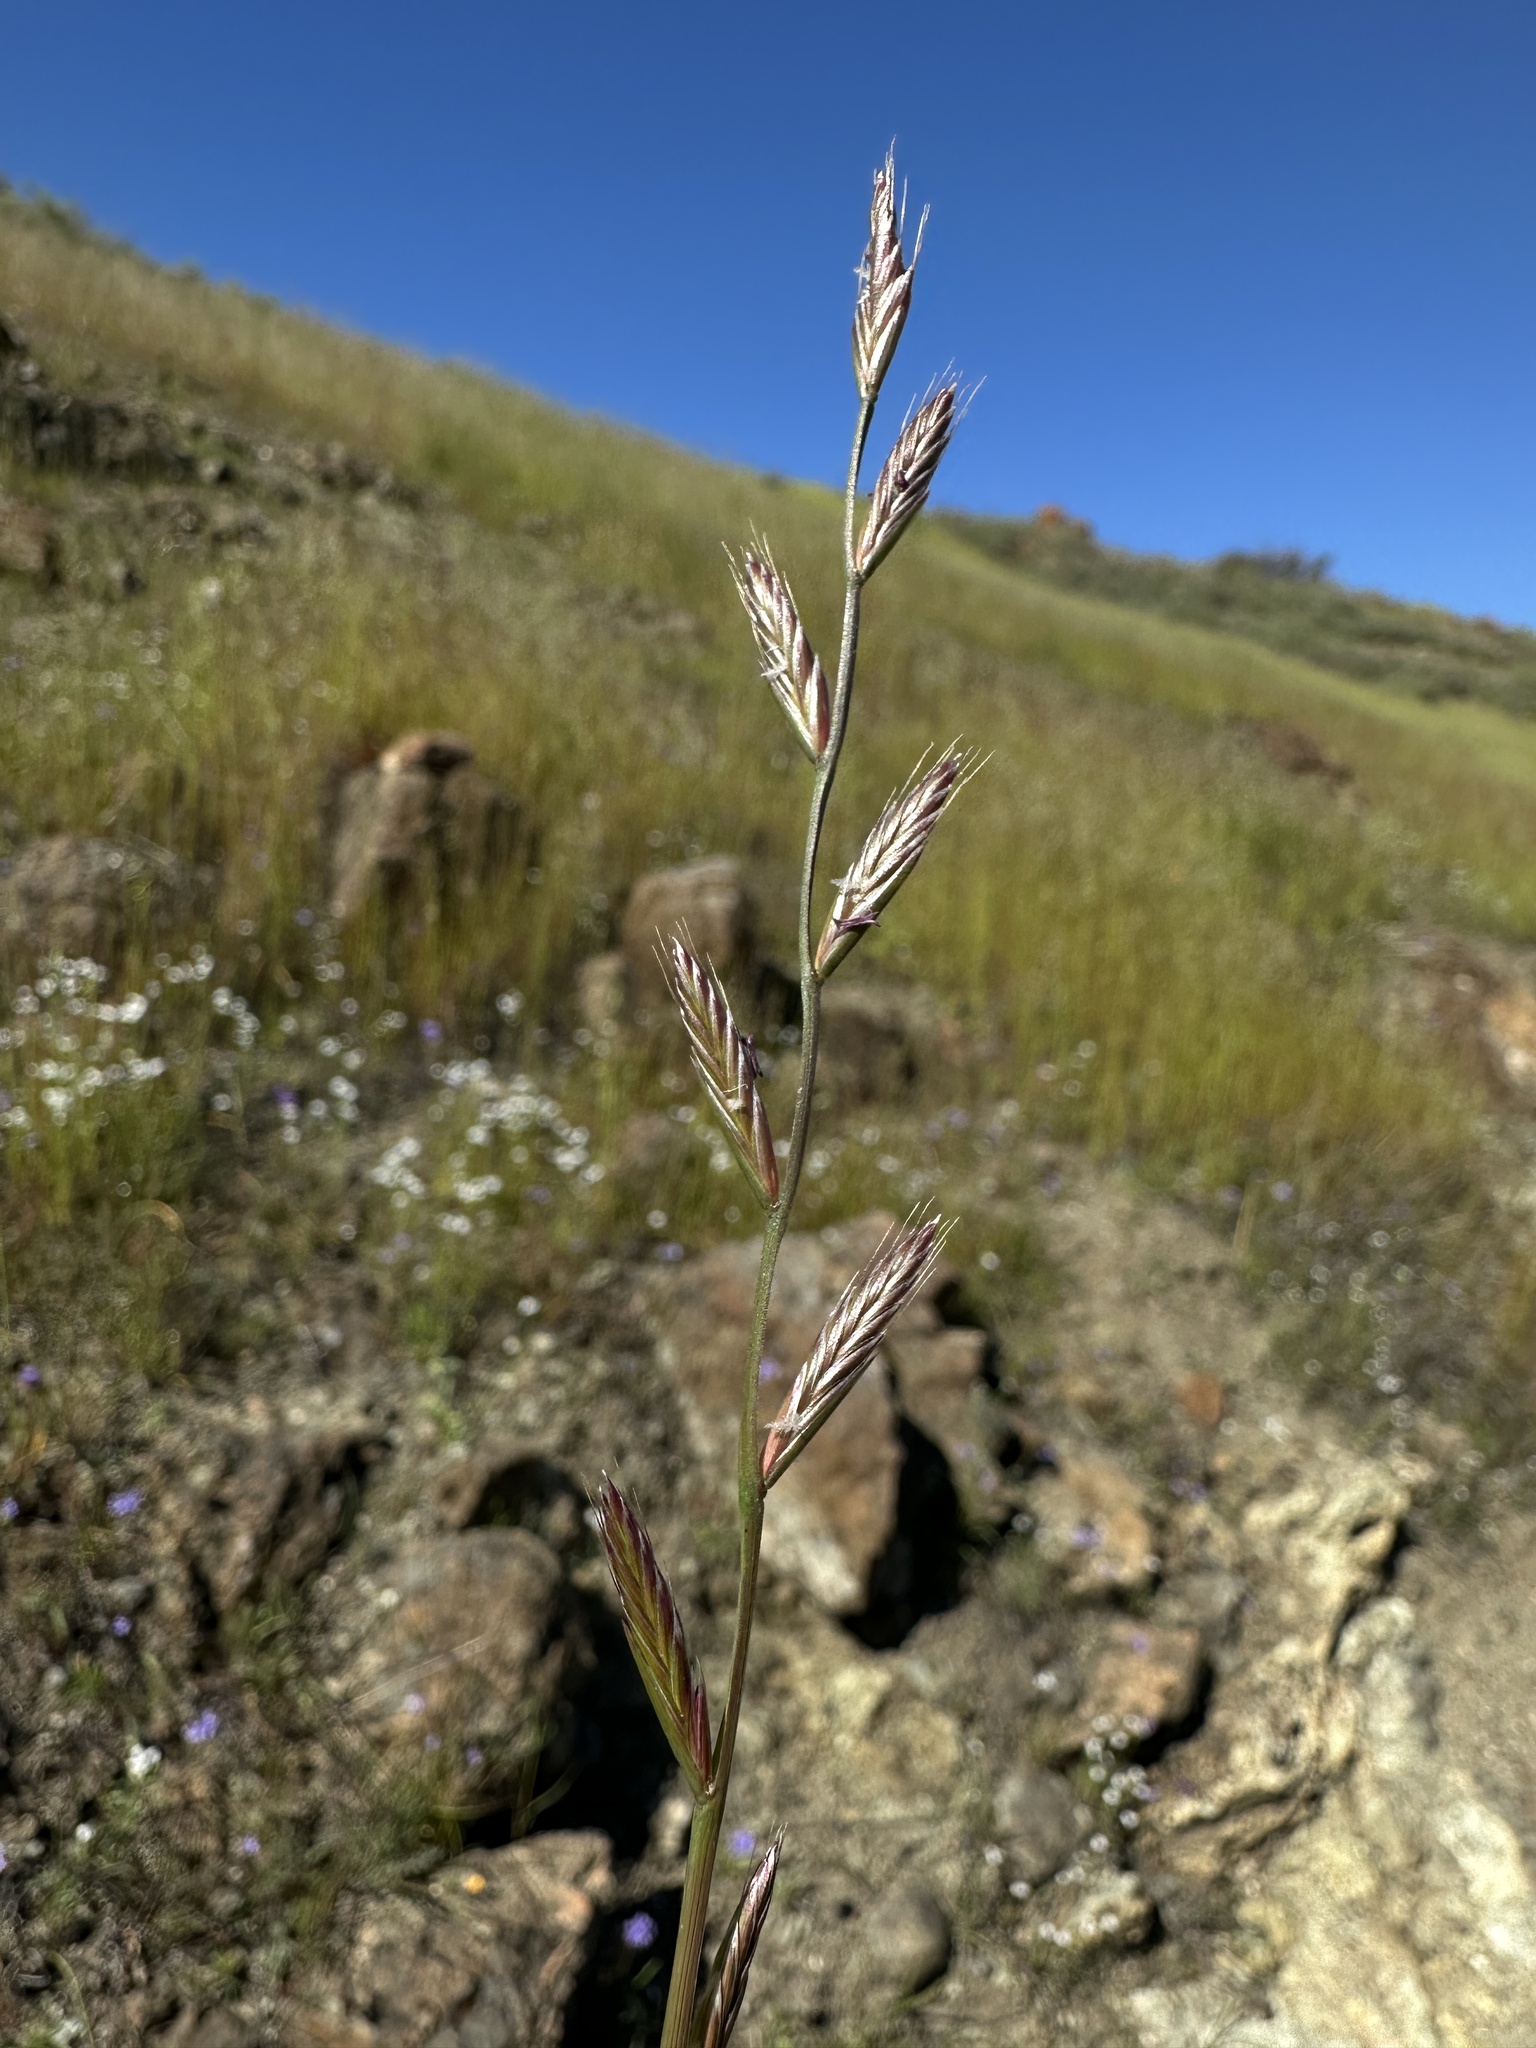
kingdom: Plantae
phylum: Tracheophyta
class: Liliopsida
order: Poales
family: Poaceae
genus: Lolium
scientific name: Lolium multiflorum
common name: Annual ryegrass
